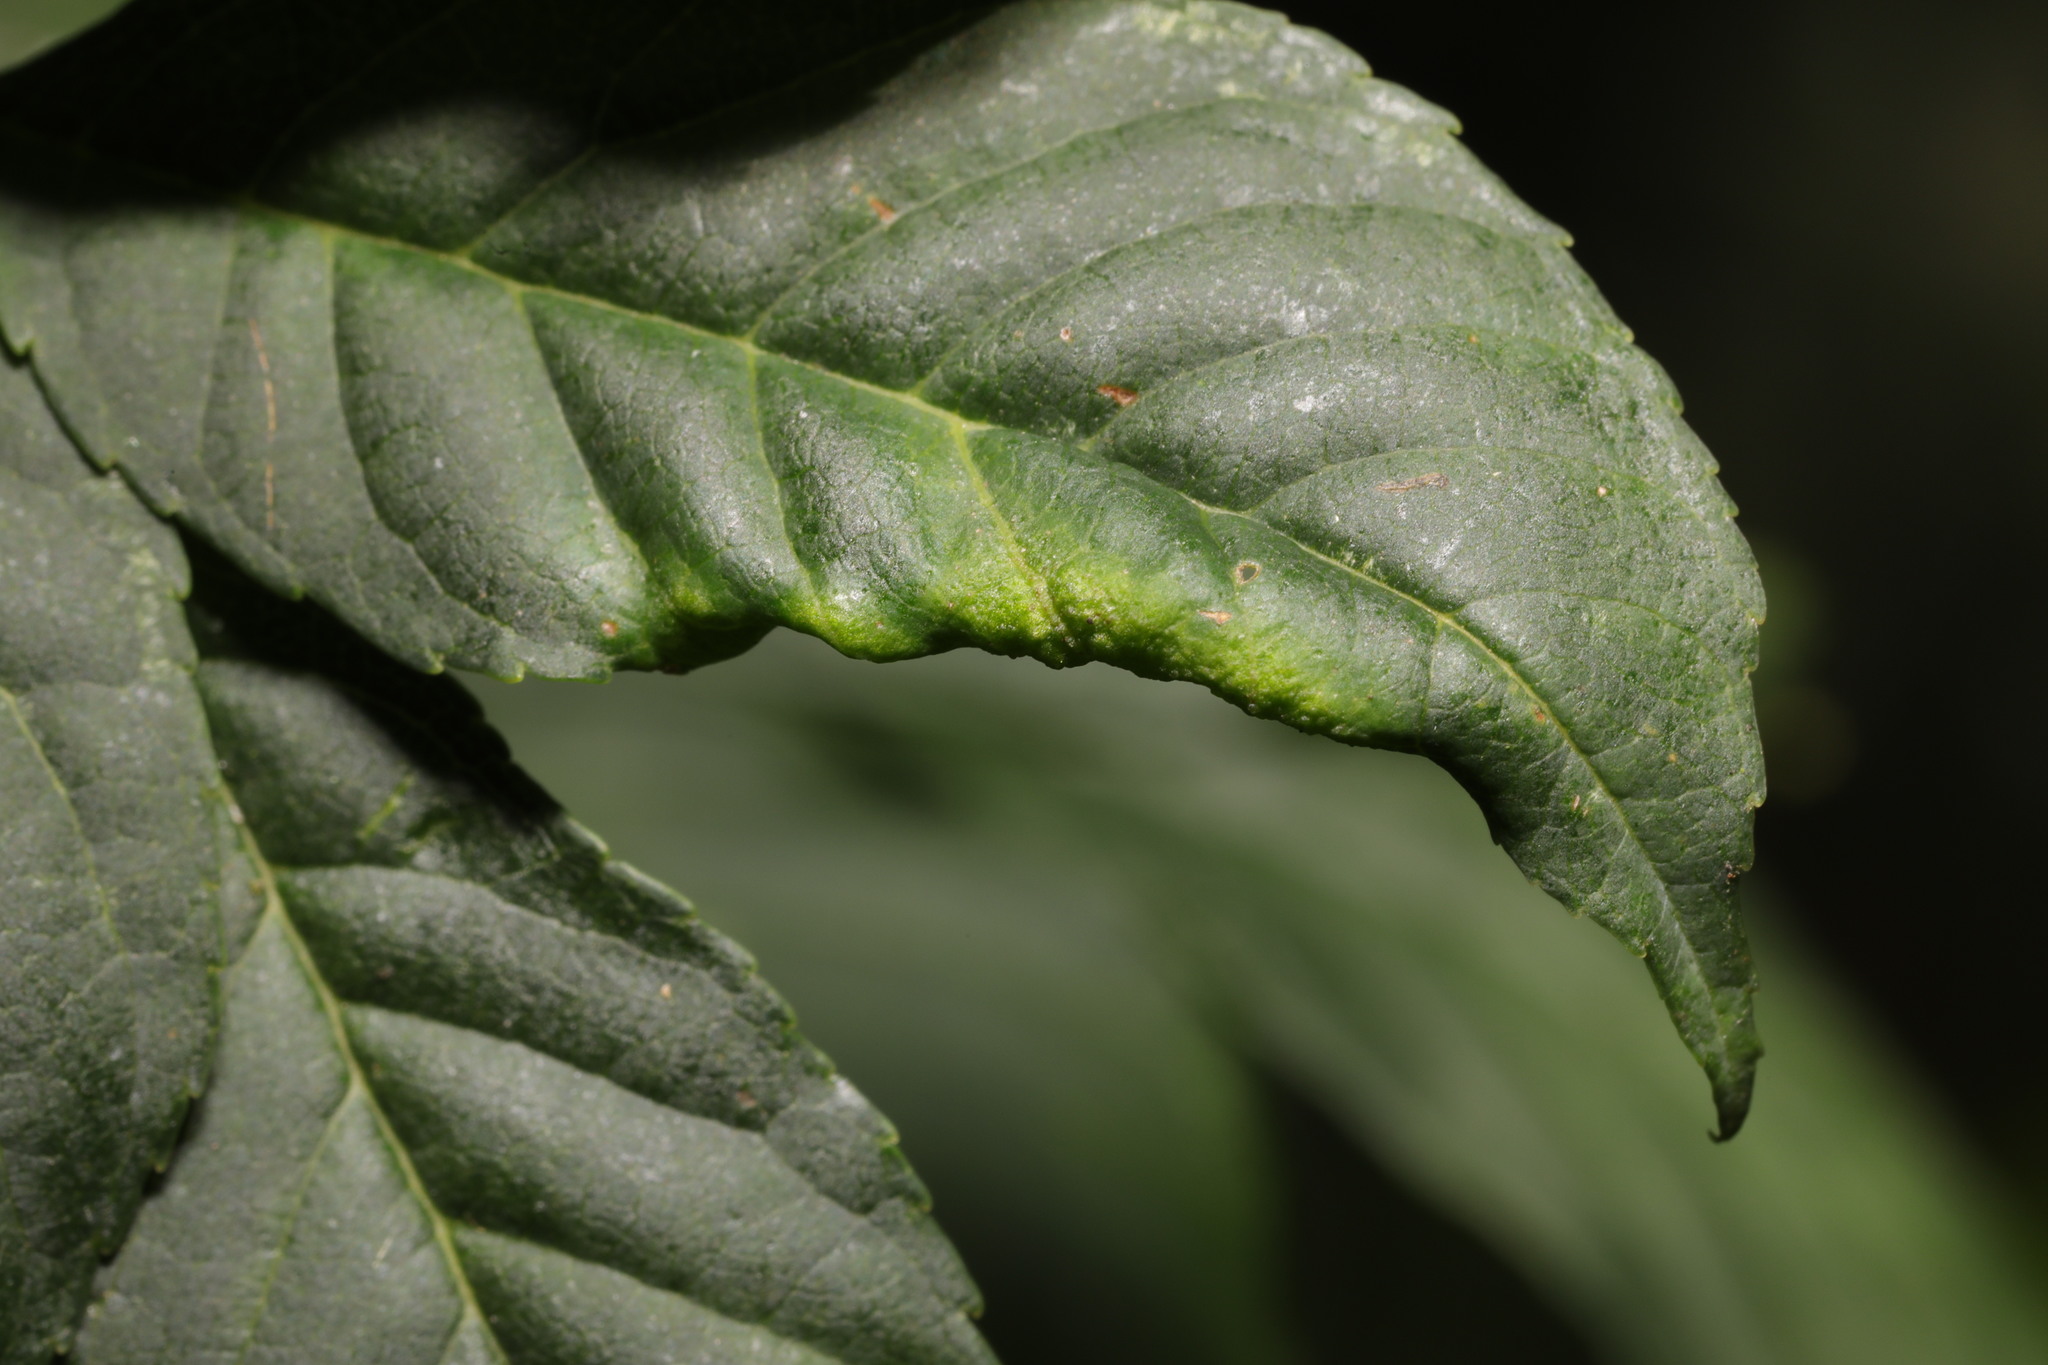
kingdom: Animalia
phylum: Arthropoda
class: Insecta
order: Hemiptera
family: Liviidae
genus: Psyllopsis
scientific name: Psyllopsis fraxini
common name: Jumping plant louse
